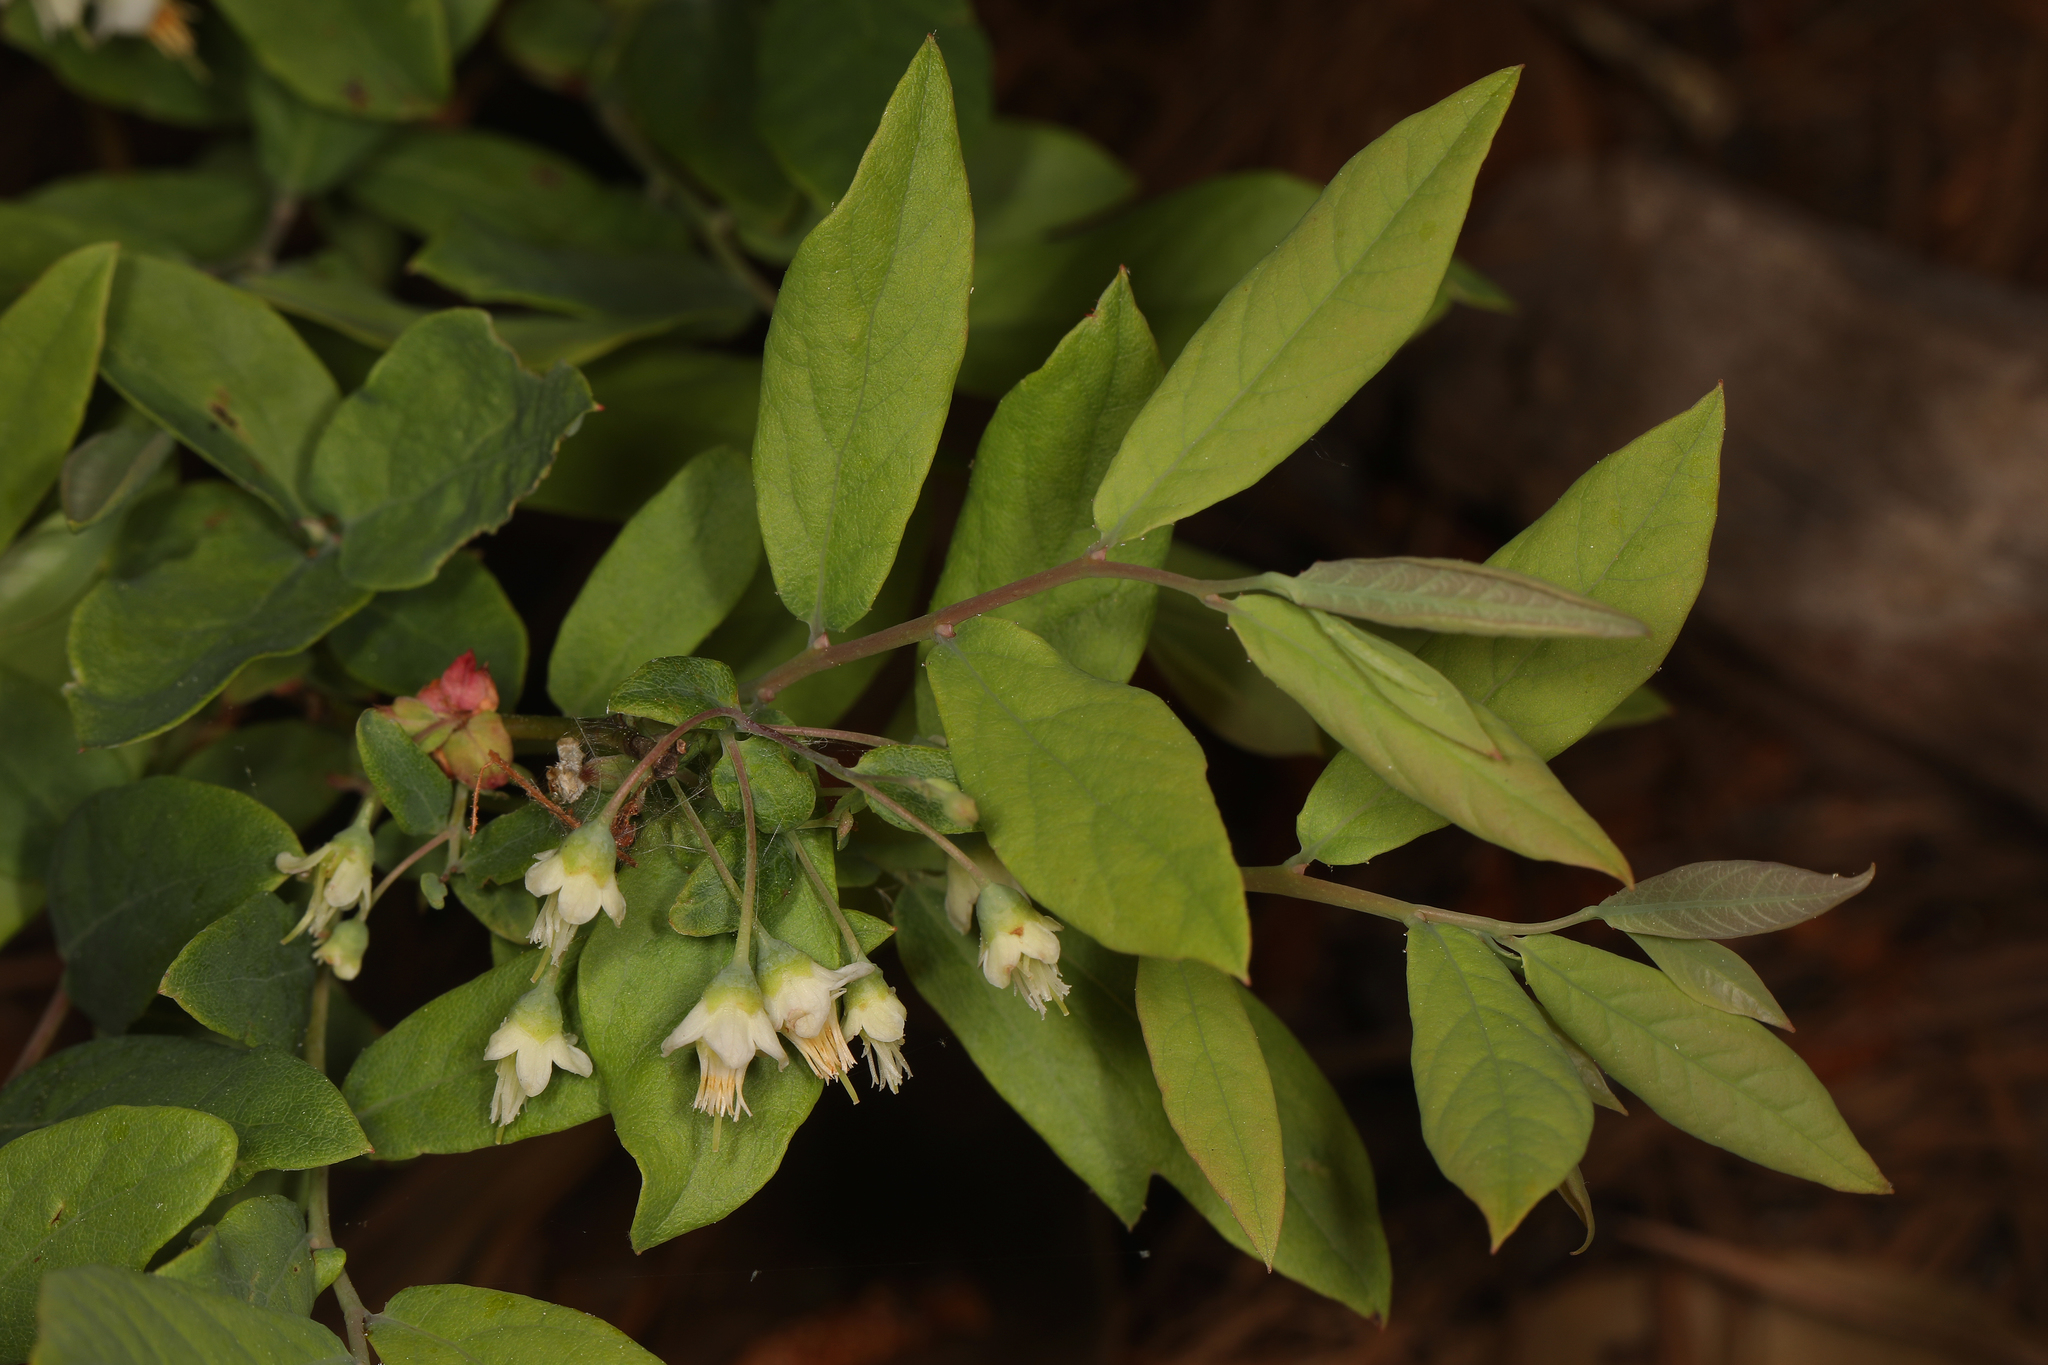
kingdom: Plantae
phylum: Tracheophyta
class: Magnoliopsida
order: Ericales
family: Ericaceae
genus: Vaccinium
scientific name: Vaccinium stamineum
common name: Deerberry
